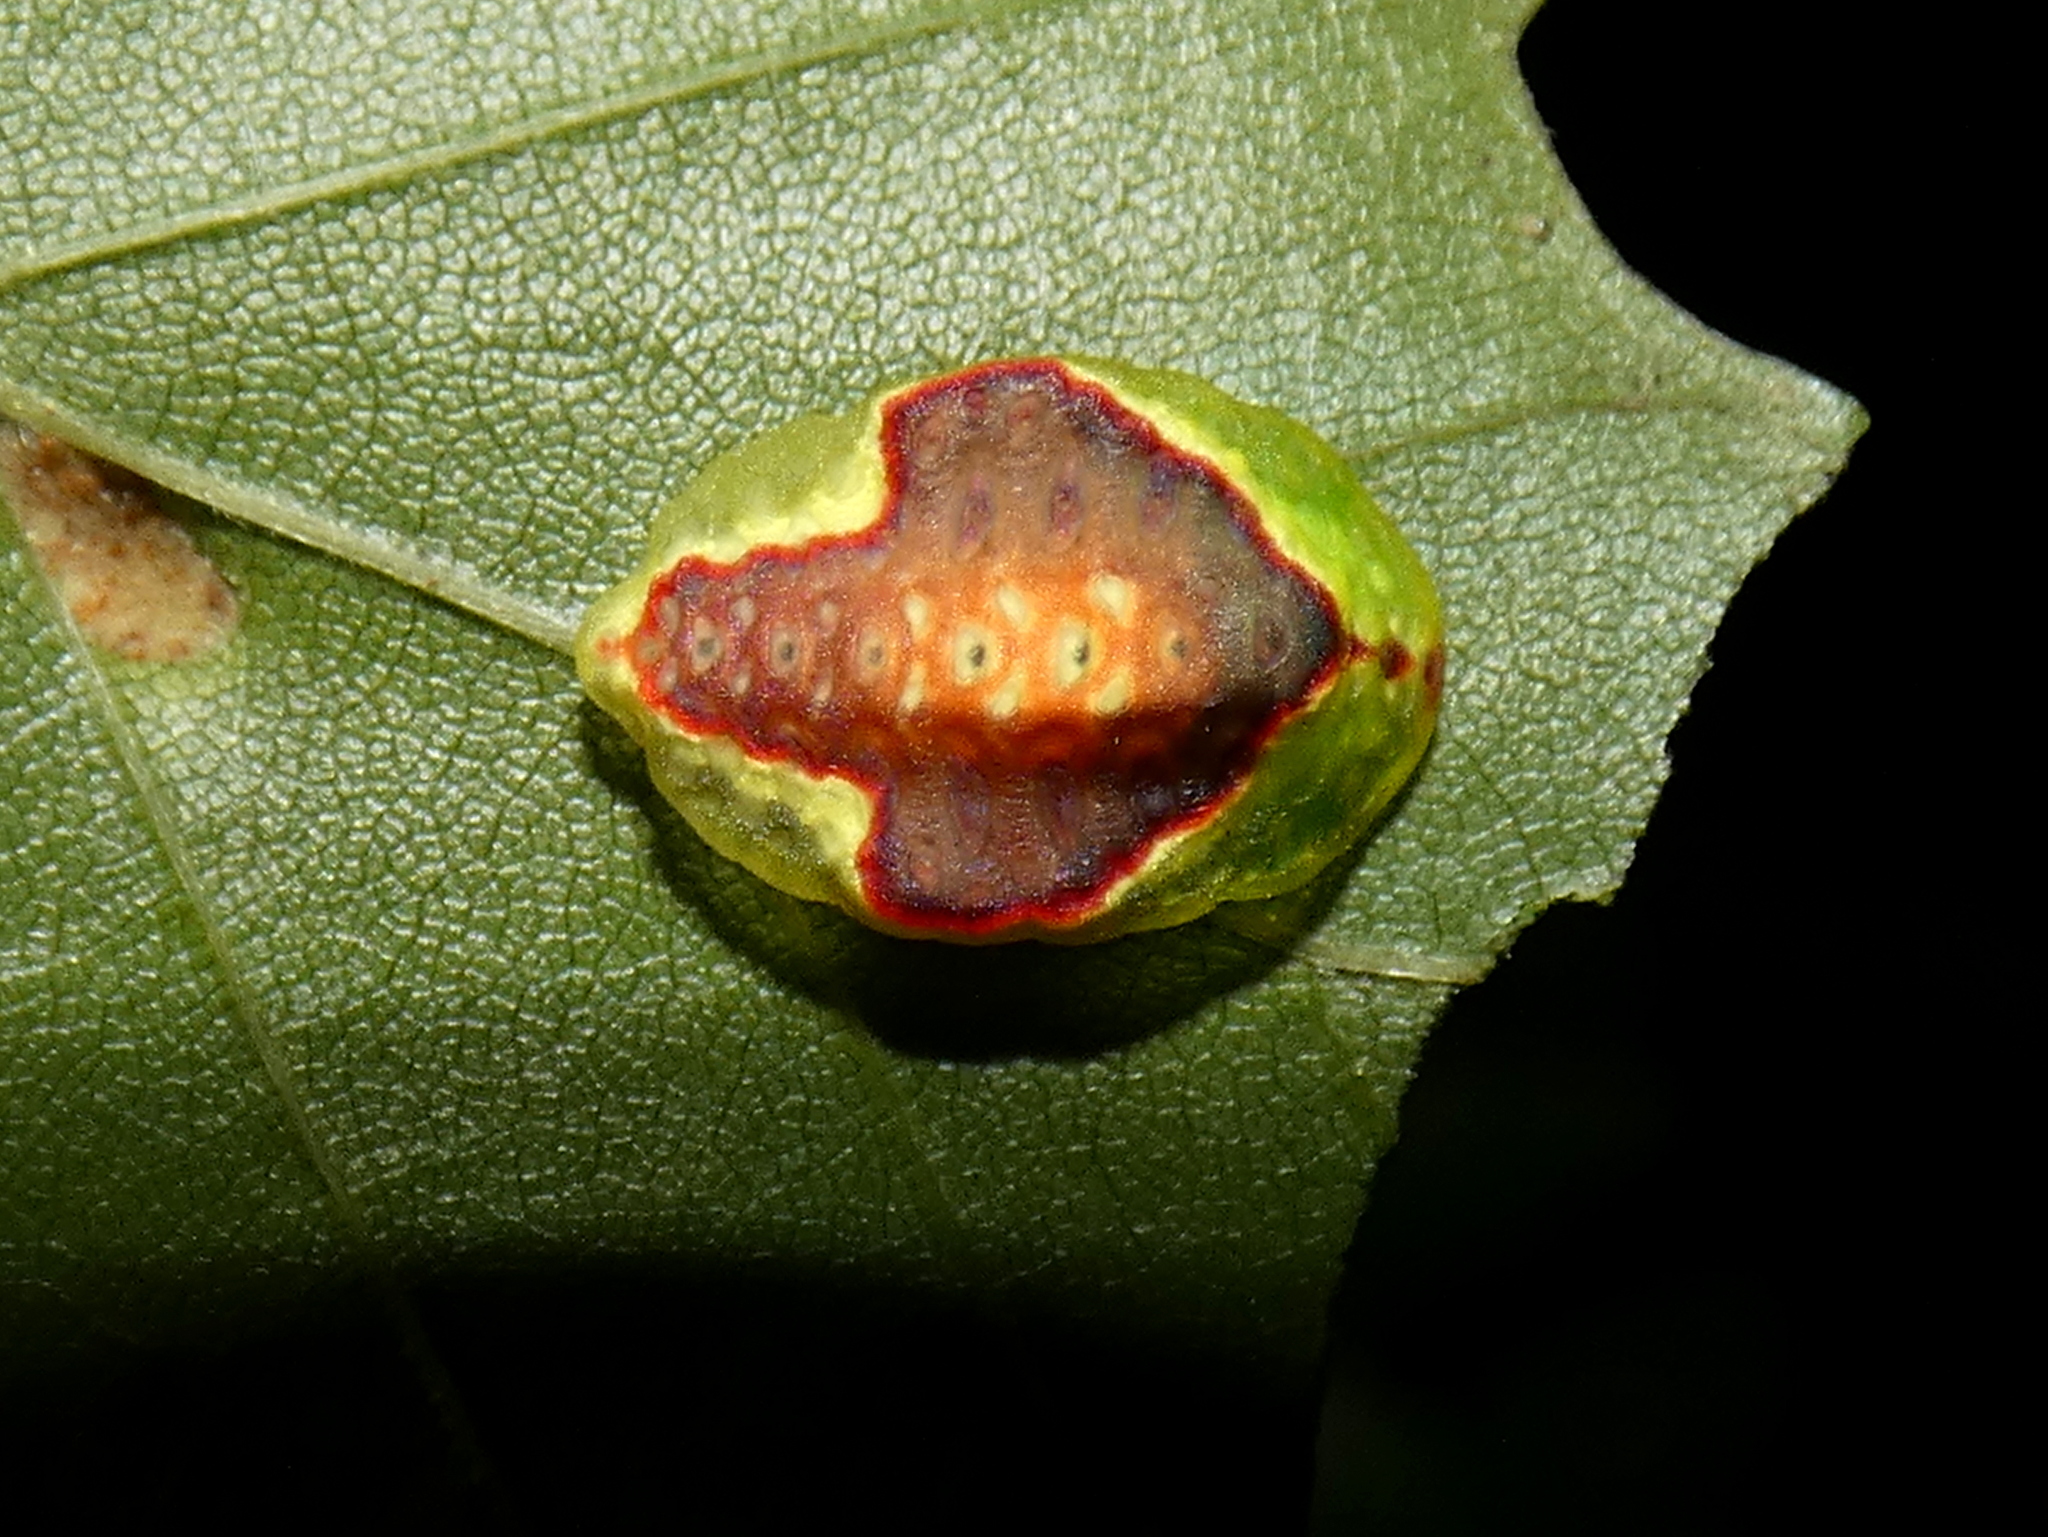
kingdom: Animalia
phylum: Arthropoda
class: Insecta
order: Lepidoptera
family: Limacodidae
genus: Tortricidia
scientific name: Tortricidia pallida
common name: Red-crossed button slug moth
